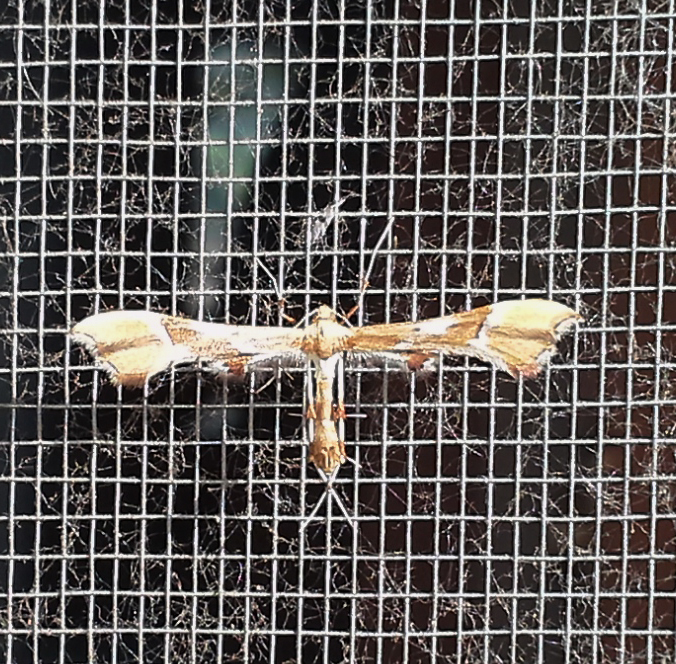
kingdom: Animalia
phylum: Arthropoda
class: Insecta
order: Lepidoptera
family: Pterophoridae
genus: Cnaemidophorus
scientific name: Cnaemidophorus rhododactyla
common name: Rose plume
